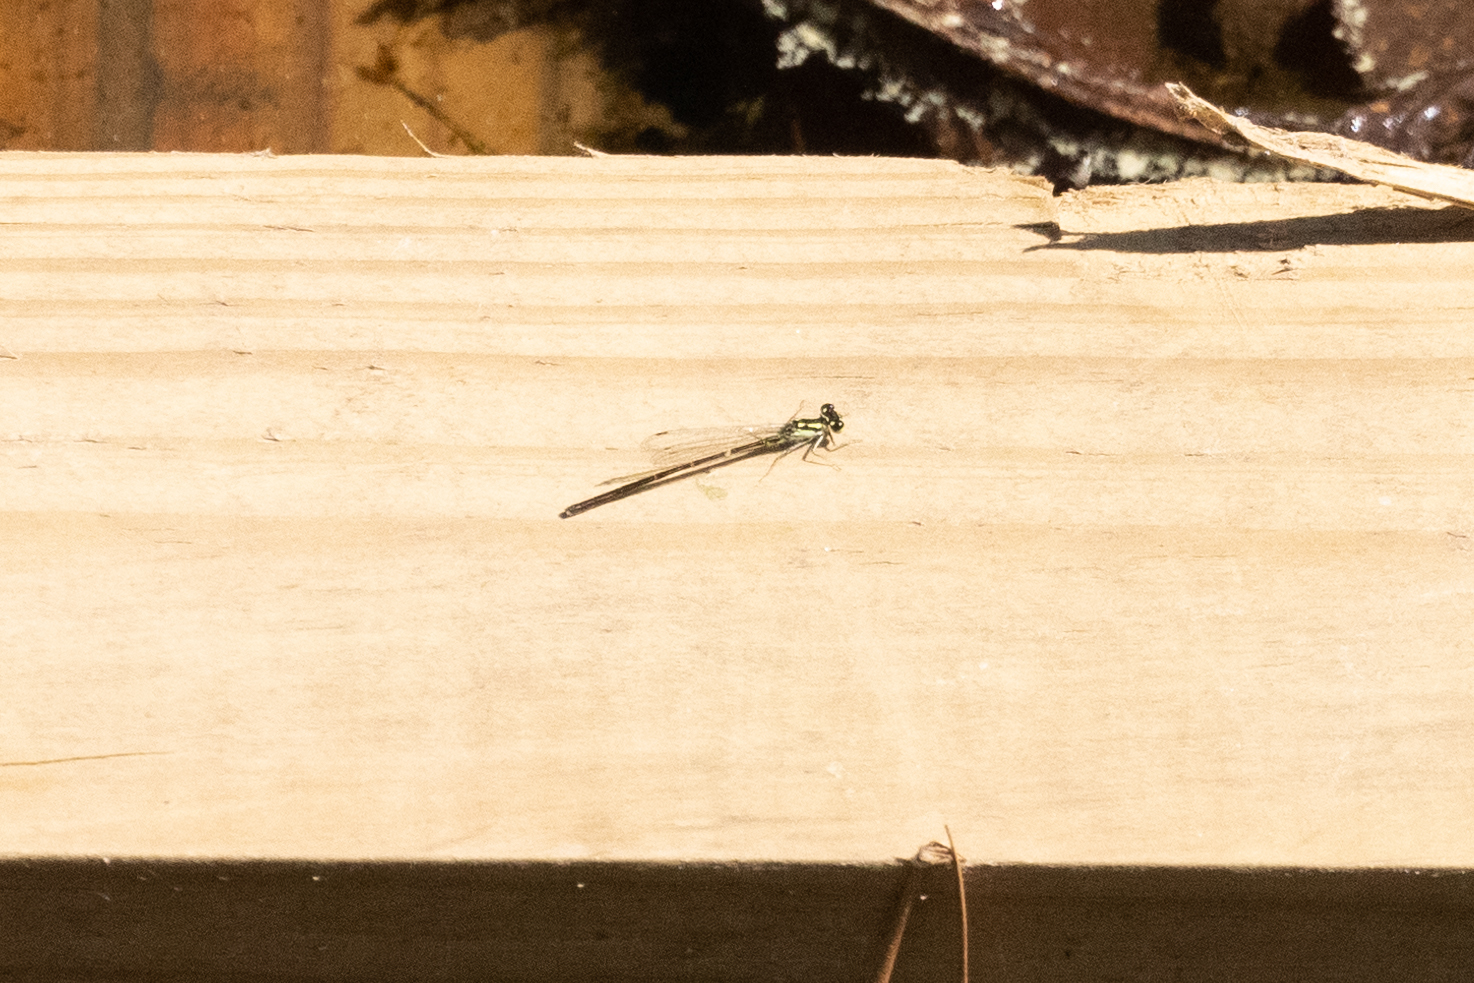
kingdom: Animalia
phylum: Arthropoda
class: Insecta
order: Odonata
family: Coenagrionidae
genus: Ischnura
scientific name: Ischnura posita
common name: Fragile forktail
